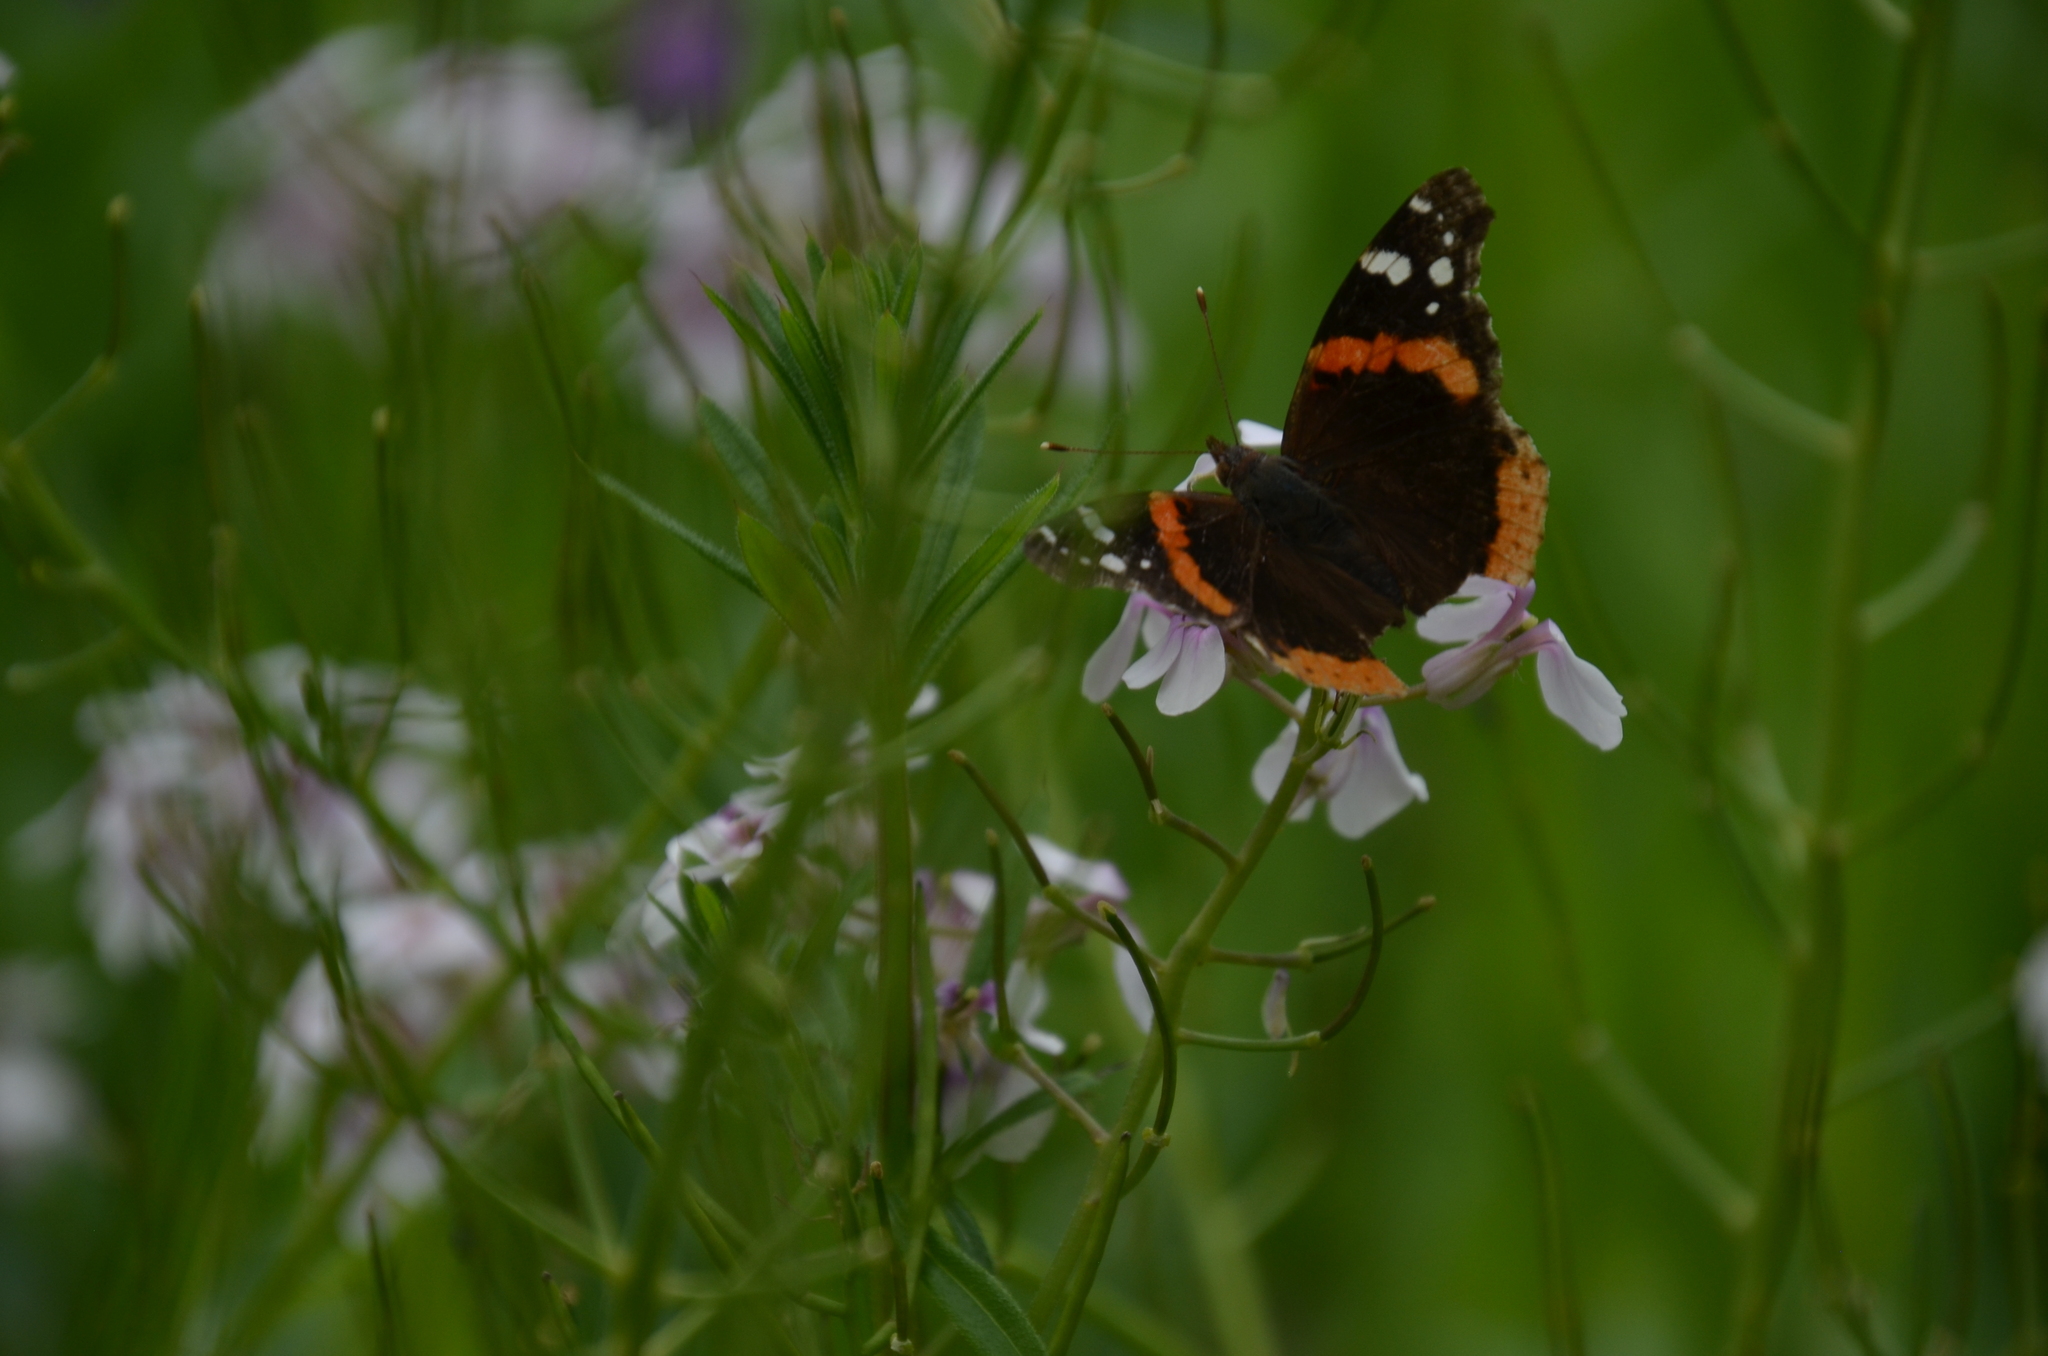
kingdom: Animalia
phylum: Arthropoda
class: Insecta
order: Lepidoptera
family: Nymphalidae
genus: Vanessa
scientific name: Vanessa atalanta
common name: Red admiral
